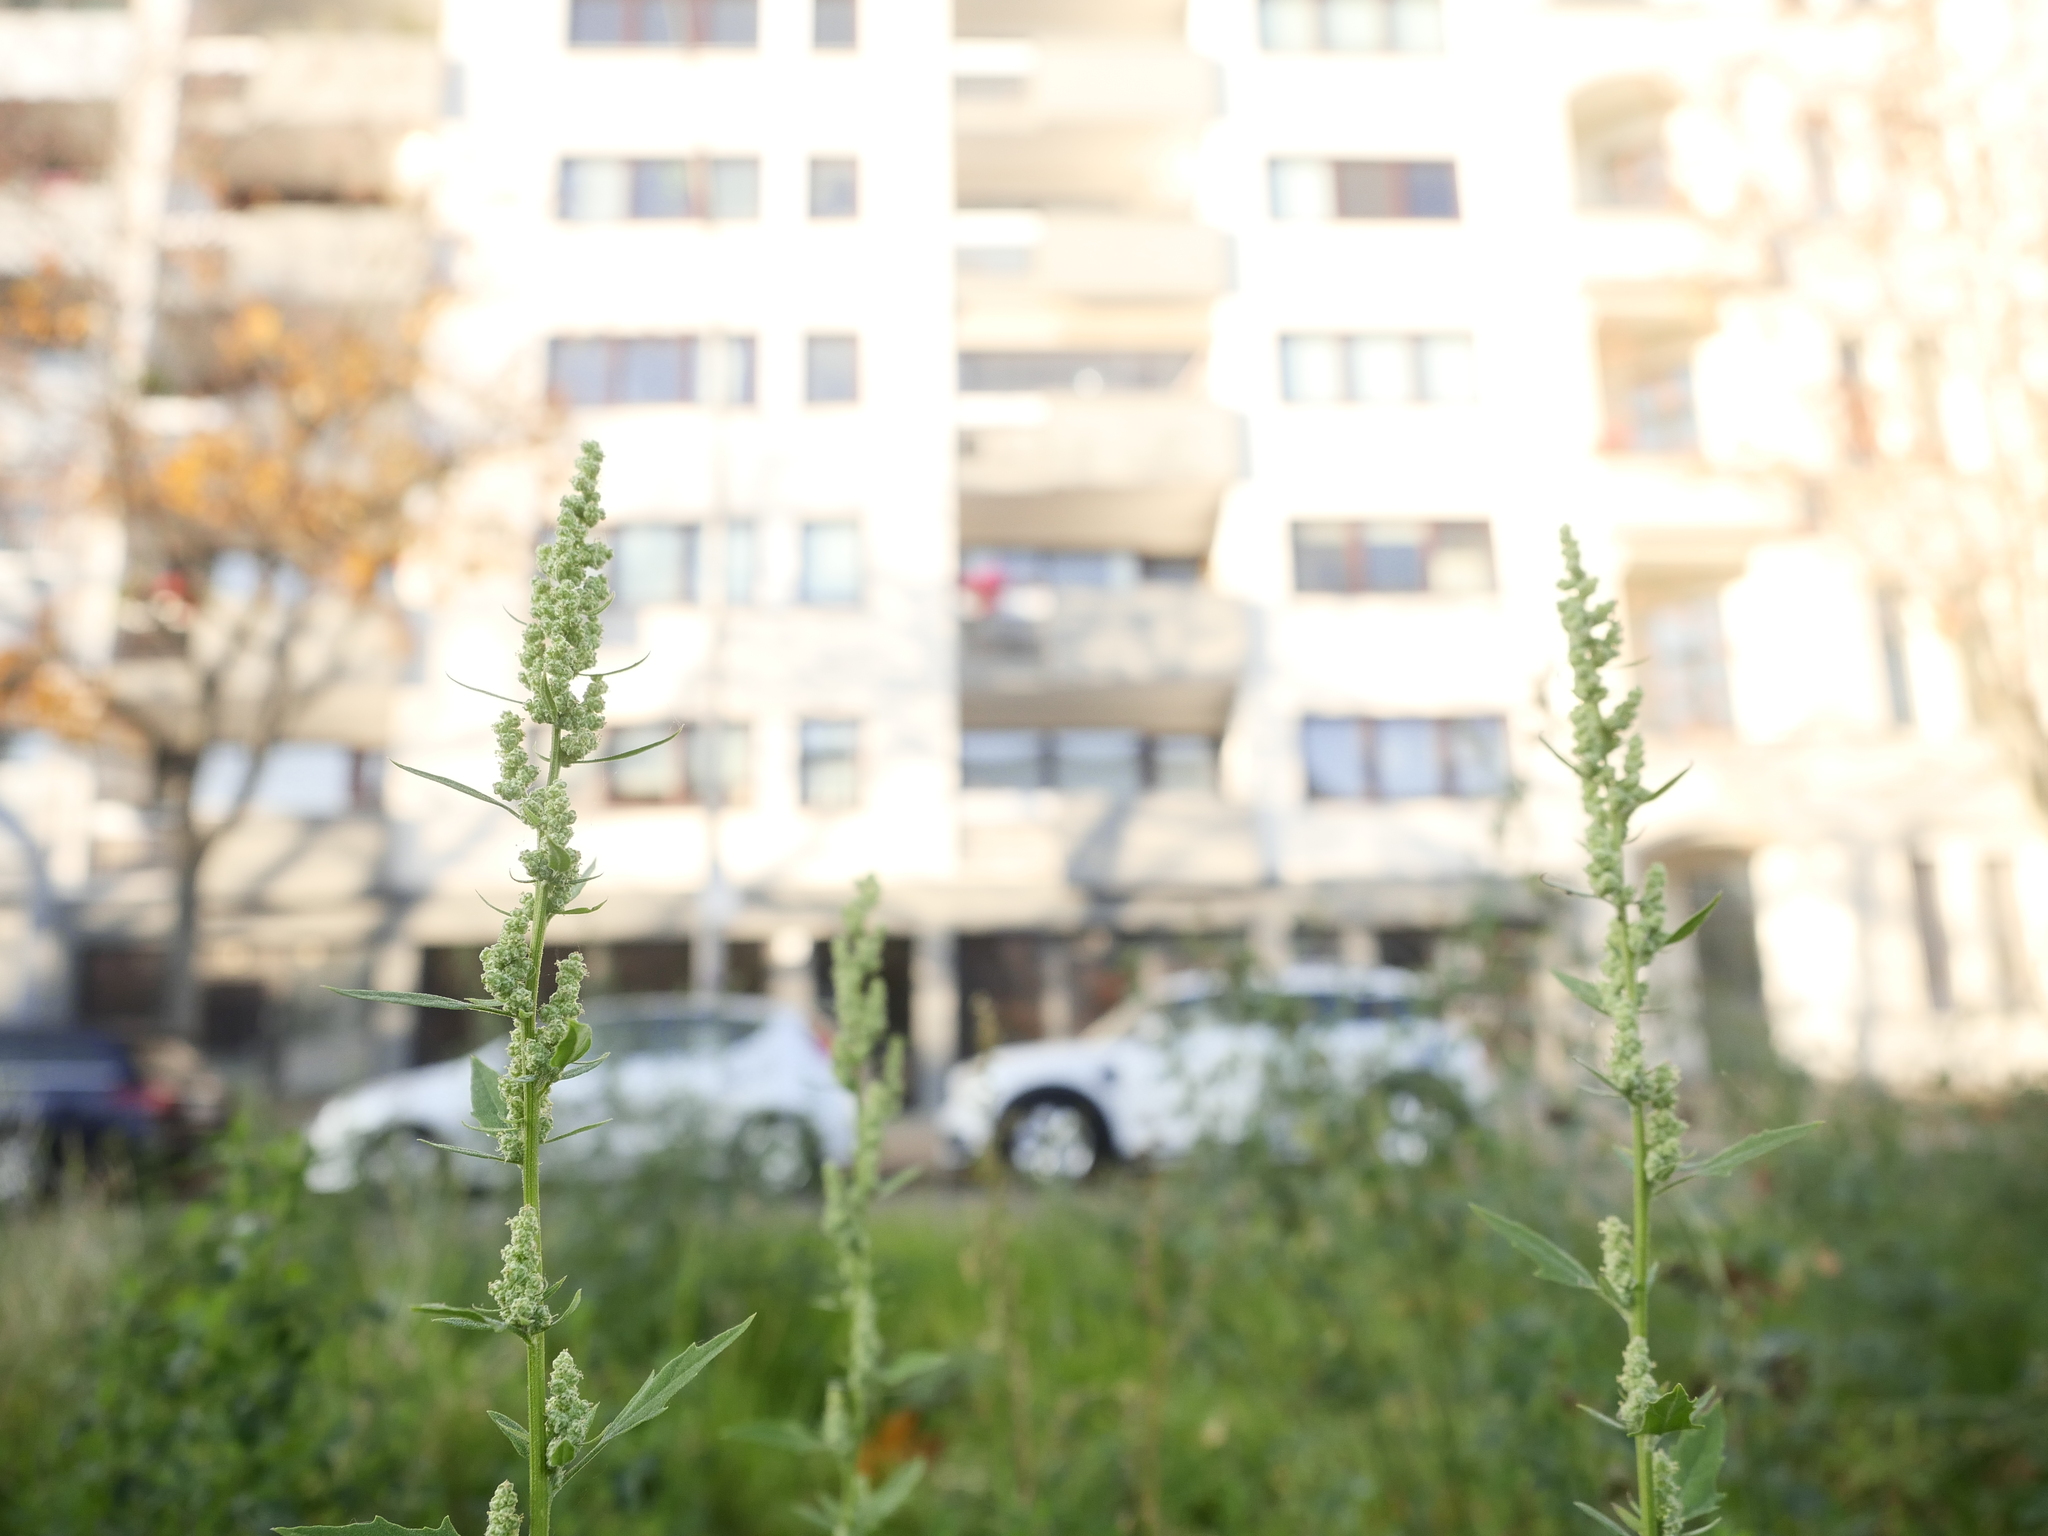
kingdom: Plantae
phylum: Tracheophyta
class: Magnoliopsida
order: Caryophyllales
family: Amaranthaceae
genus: Chenopodium
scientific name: Chenopodium album
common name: Fat-hen
